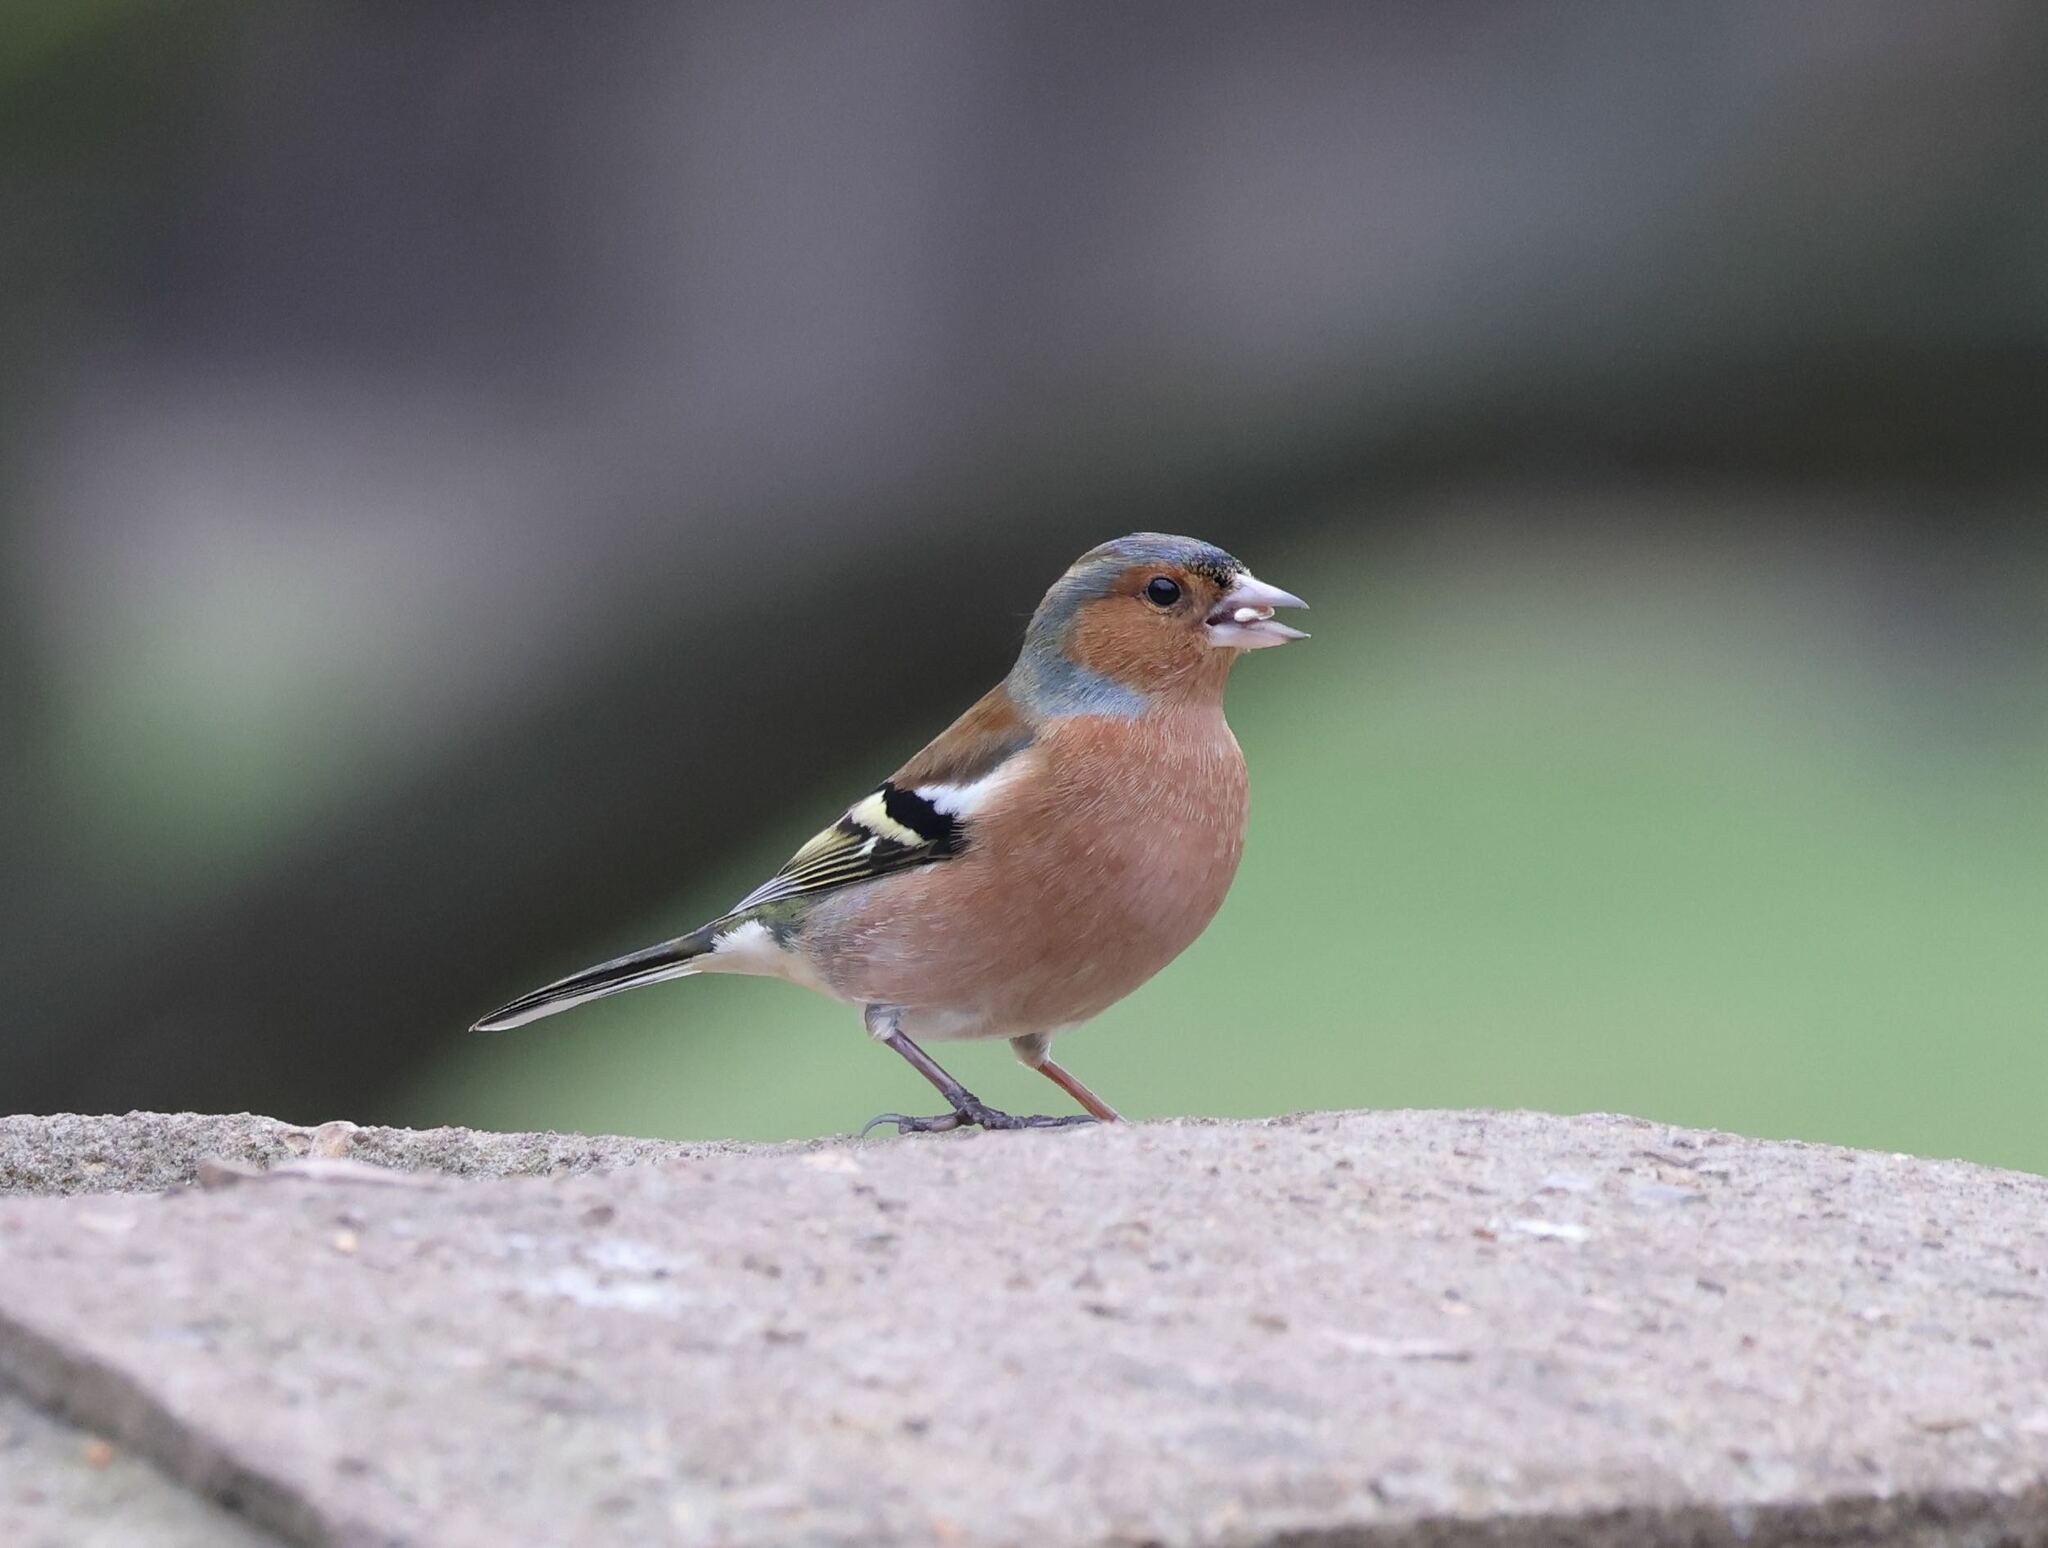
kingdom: Animalia
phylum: Chordata
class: Aves
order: Passeriformes
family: Fringillidae
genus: Fringilla
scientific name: Fringilla coelebs
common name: Common chaffinch
